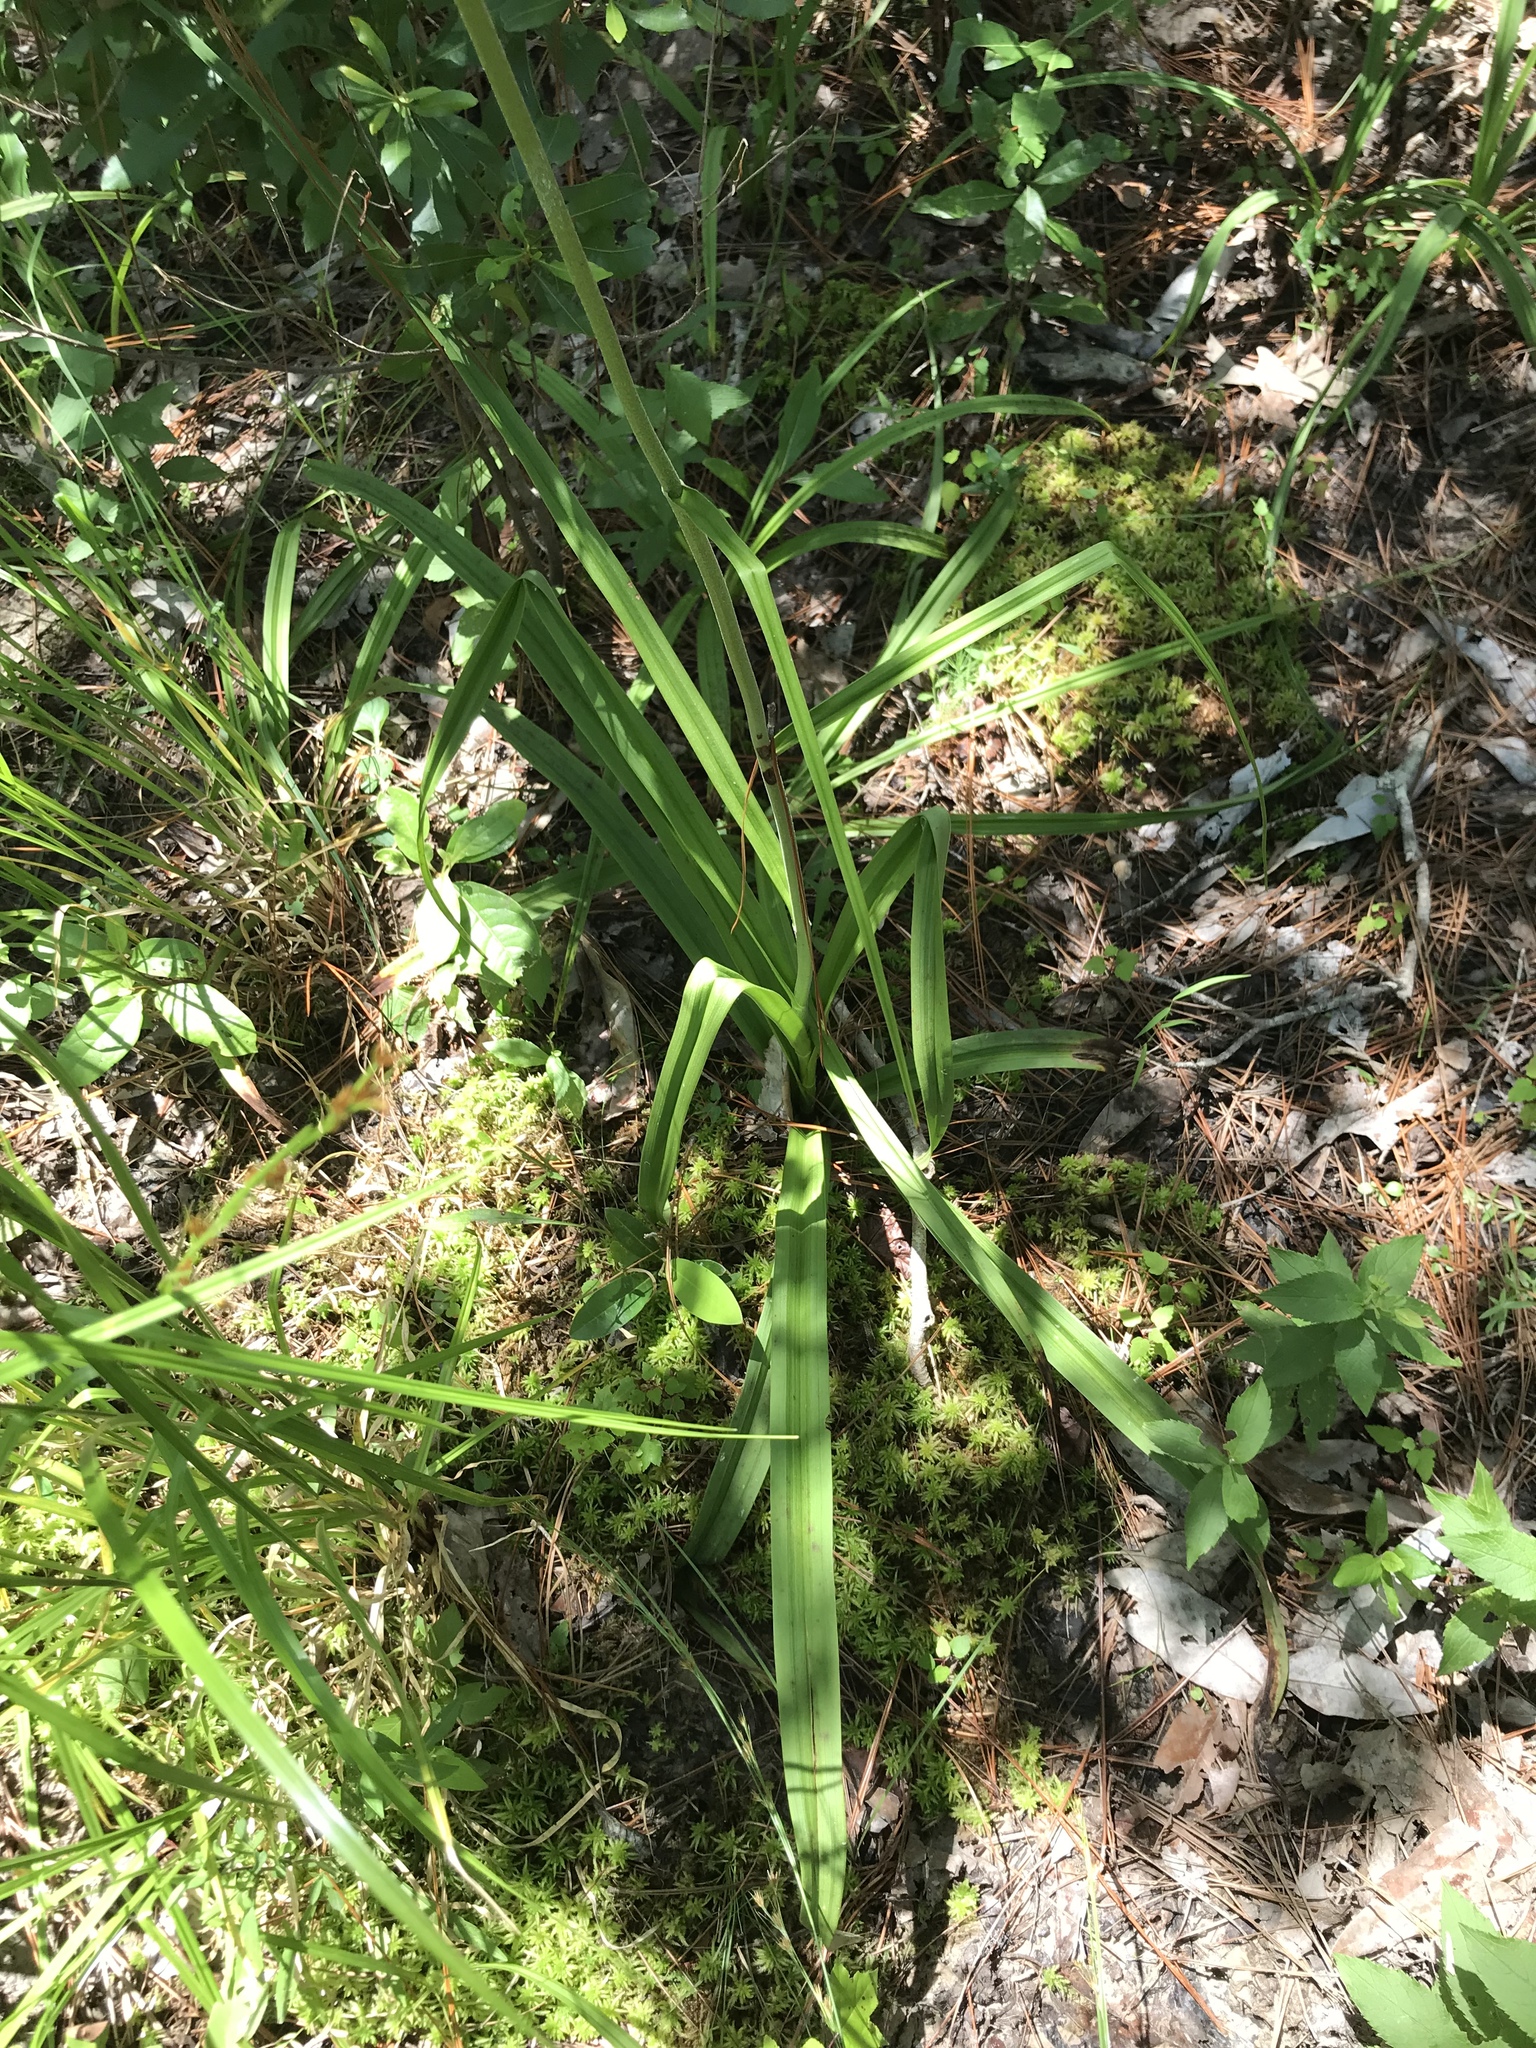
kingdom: Plantae
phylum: Tracheophyta
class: Liliopsida
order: Liliales
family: Melanthiaceae
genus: Melanthium
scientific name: Melanthium virginicum
